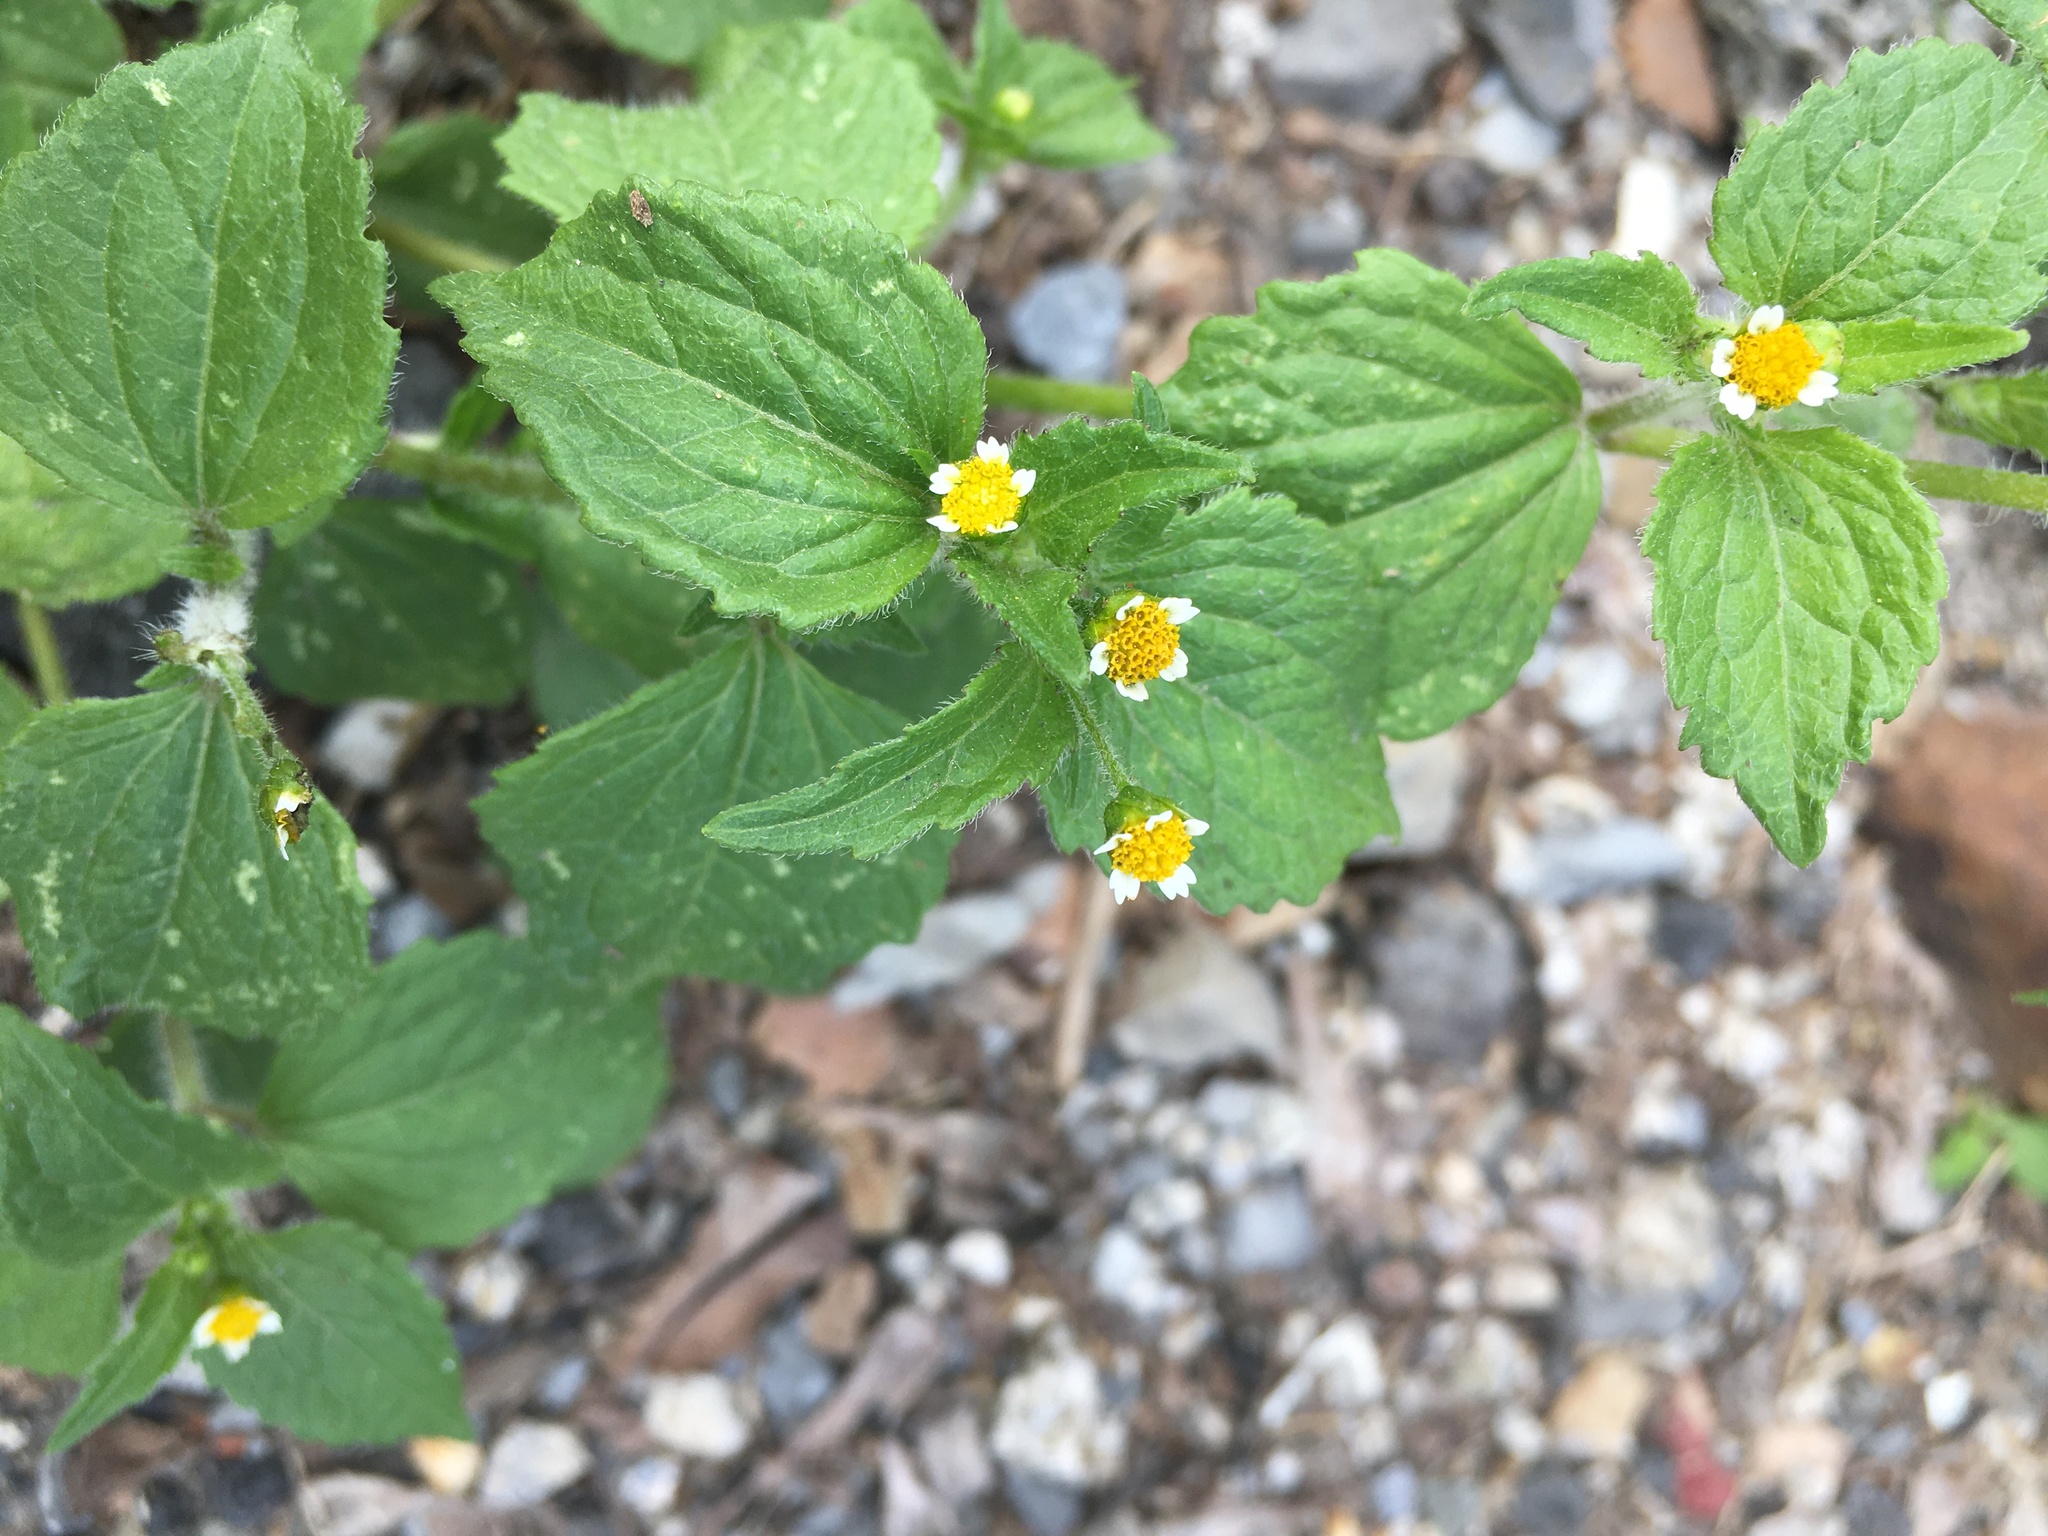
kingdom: Plantae
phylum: Tracheophyta
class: Magnoliopsida
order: Asterales
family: Asteraceae
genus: Galinsoga
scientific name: Galinsoga quadriradiata
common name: Shaggy soldier
